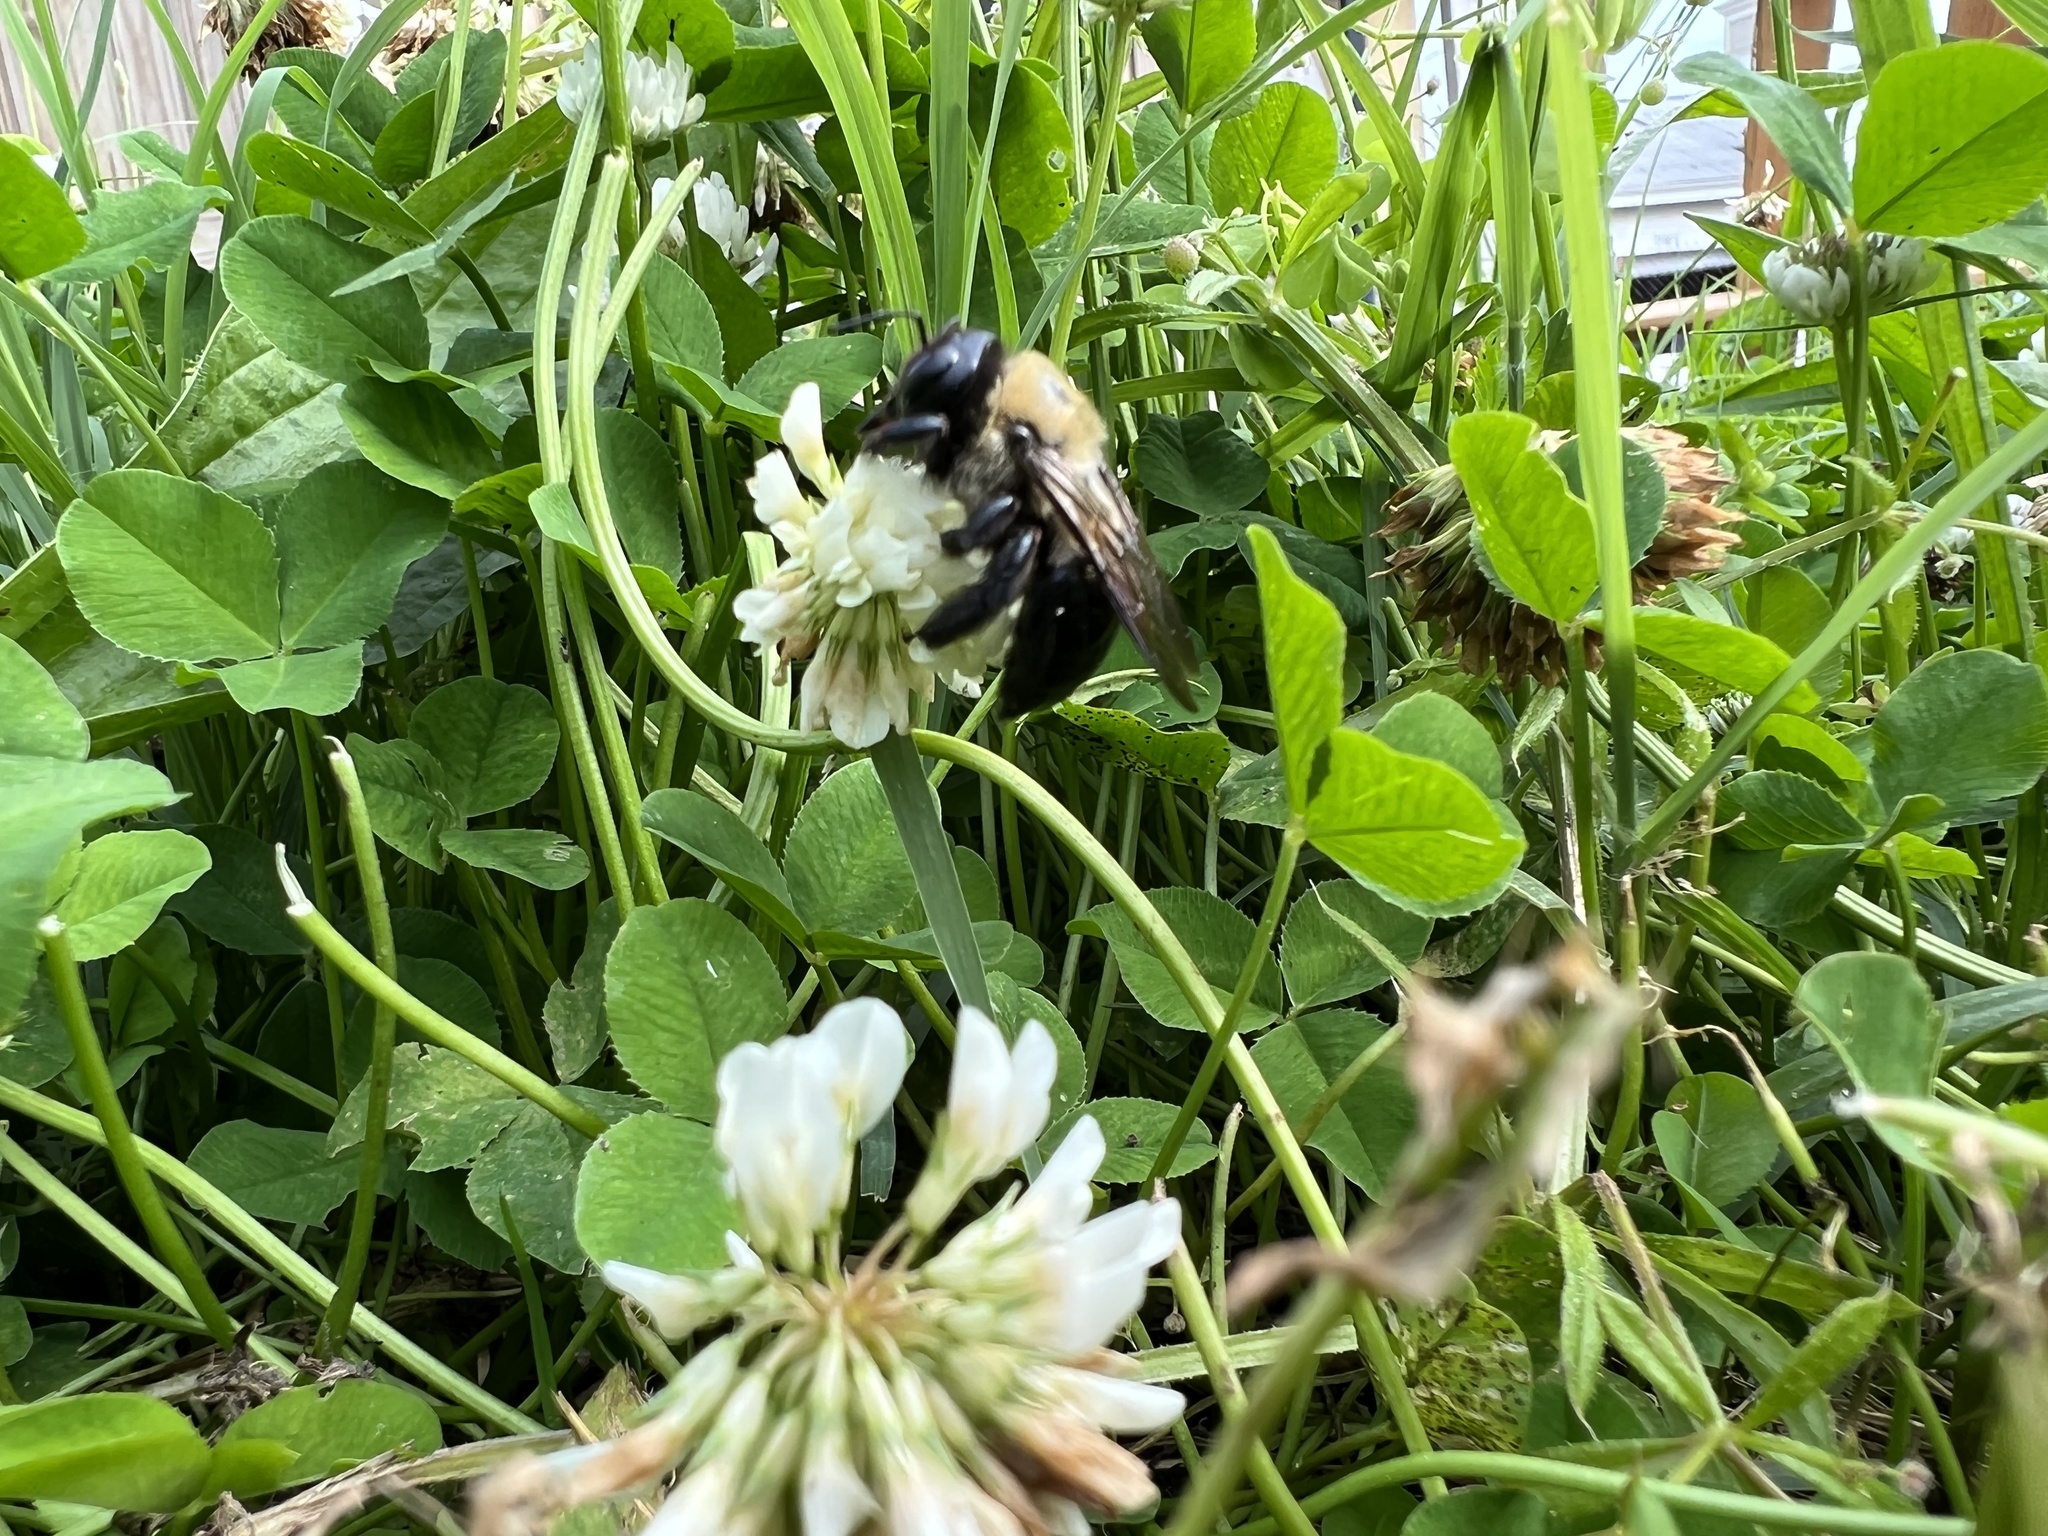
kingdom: Animalia
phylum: Arthropoda
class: Insecta
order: Hymenoptera
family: Apidae
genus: Xylocopa
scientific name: Xylocopa virginica
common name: Carpenter bee
